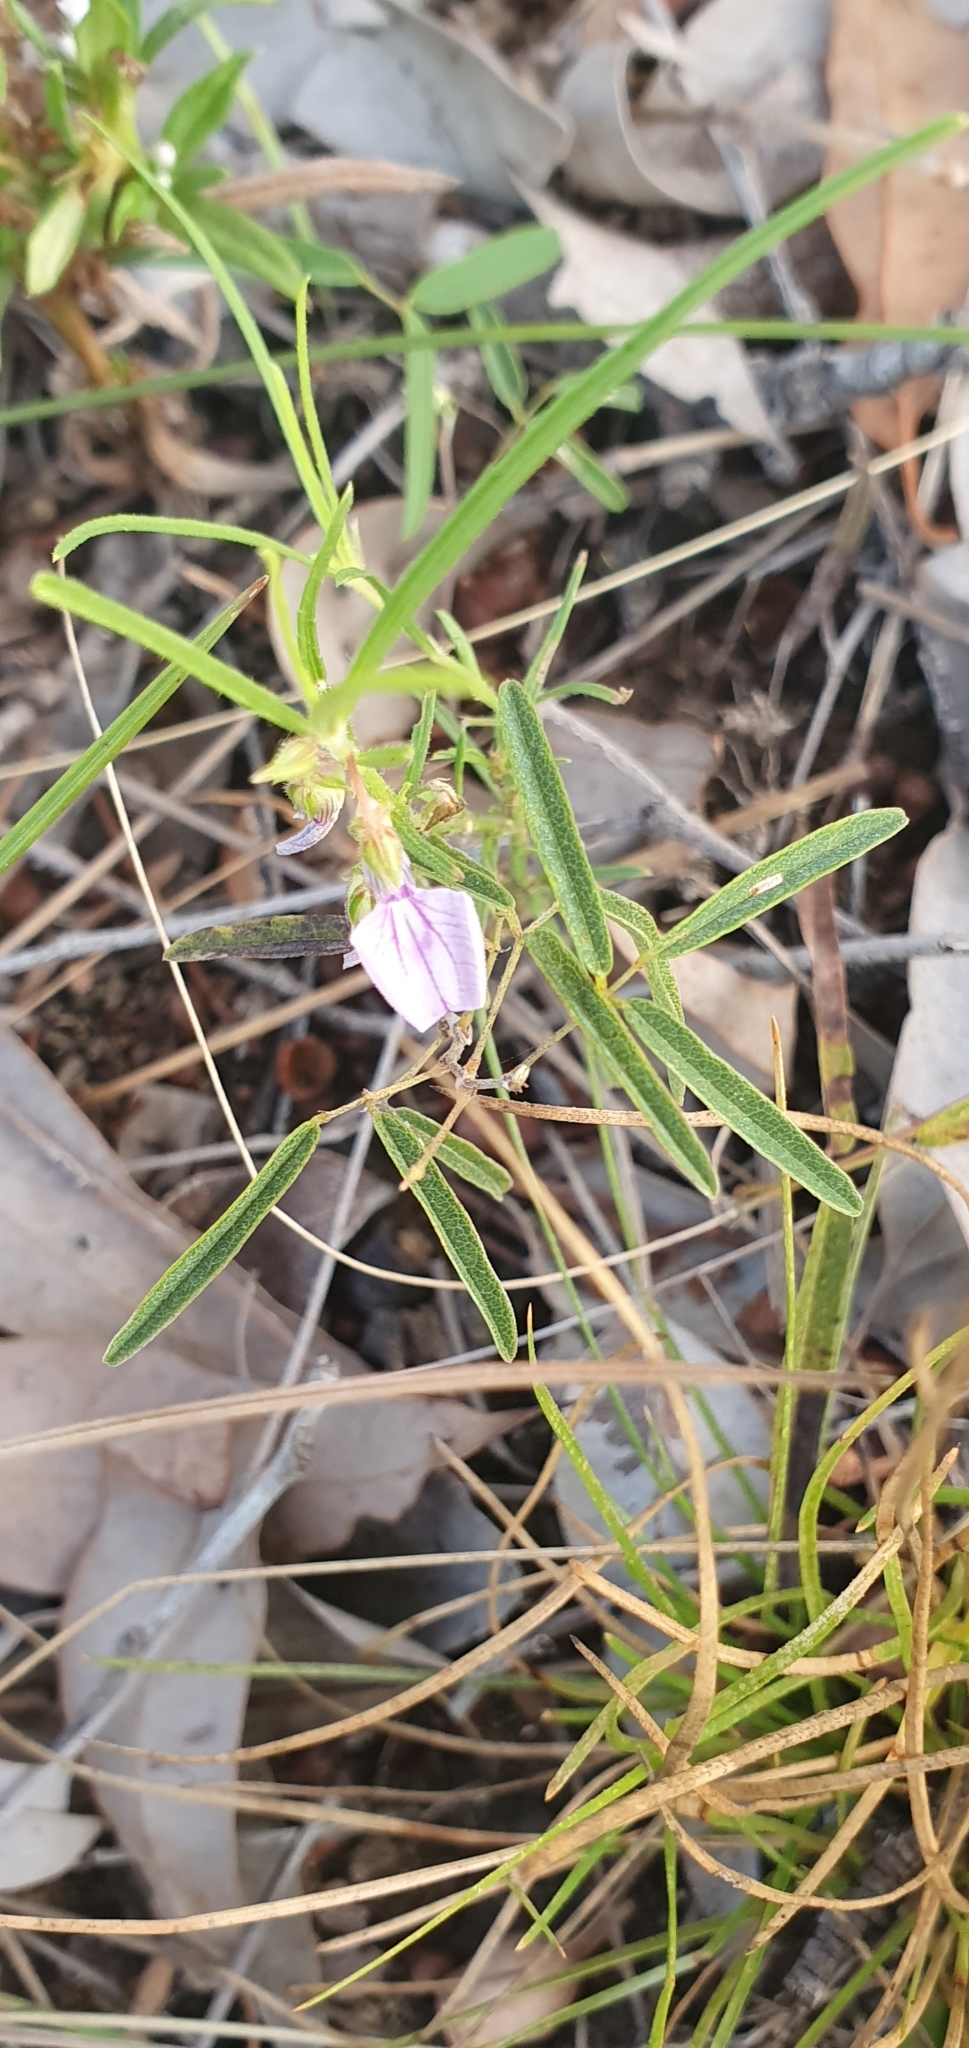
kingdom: Plantae
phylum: Tracheophyta
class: Magnoliopsida
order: Malpighiales
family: Violaceae
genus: Pigea
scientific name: Pigea enneasperma
